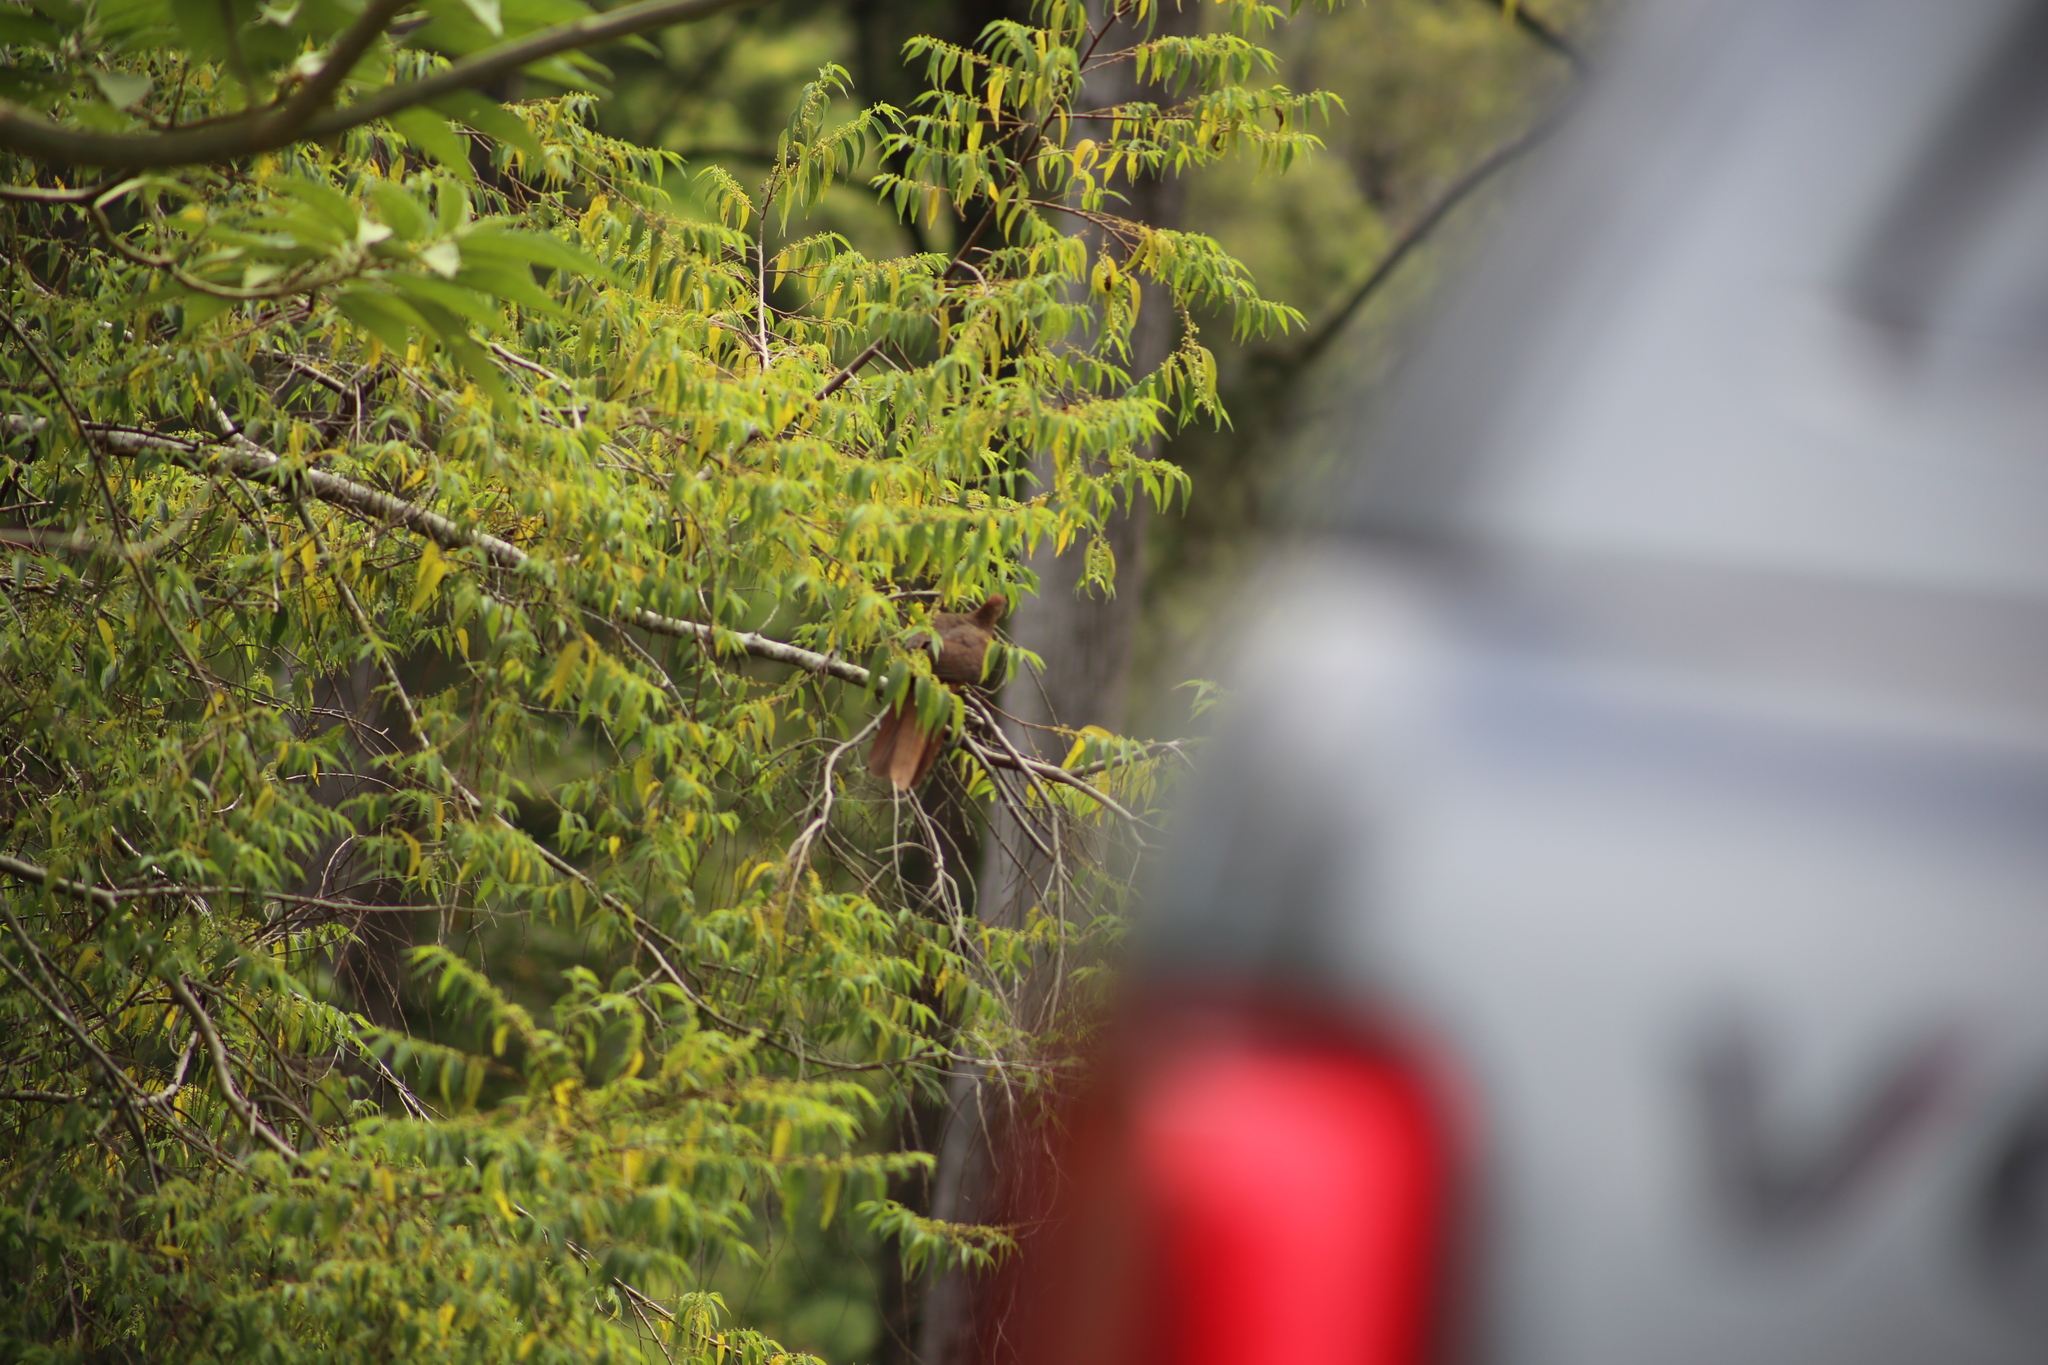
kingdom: Animalia
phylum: Chordata
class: Aves
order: Columbiformes
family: Columbidae
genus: Macropygia
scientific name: Macropygia phasianella
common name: Brown cuckoo-dove
